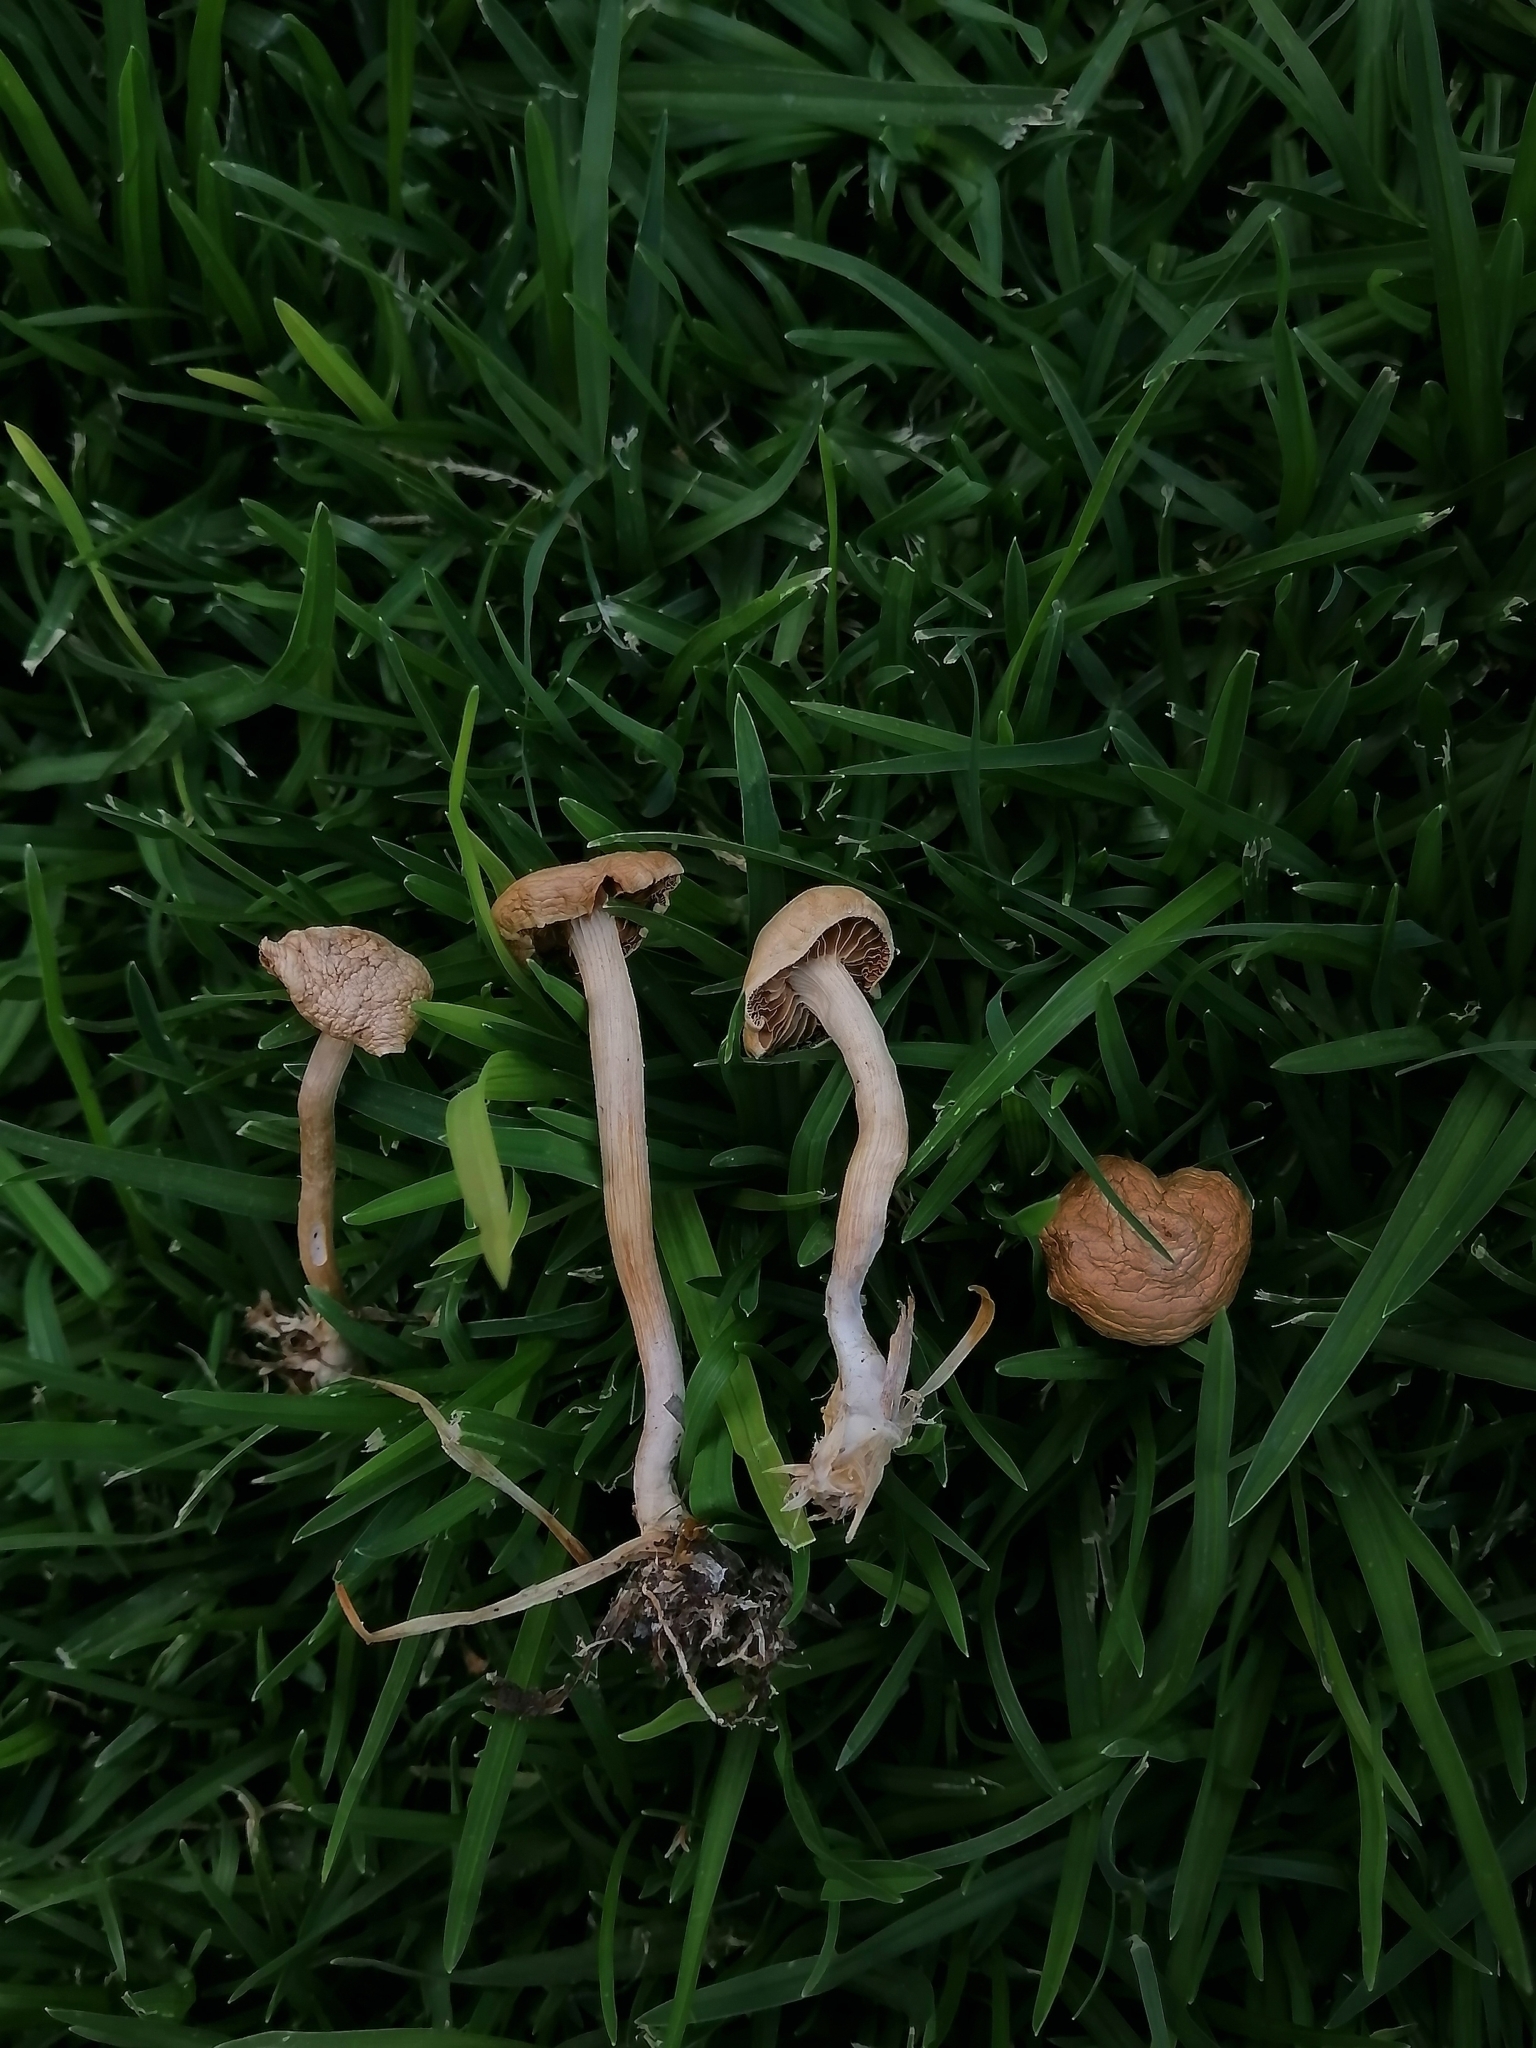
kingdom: Fungi
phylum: Basidiomycota
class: Agaricomycetes
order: Agaricales
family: Strophariaceae
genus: Agrocybe
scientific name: Agrocybe pediades
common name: Common fieldcap
